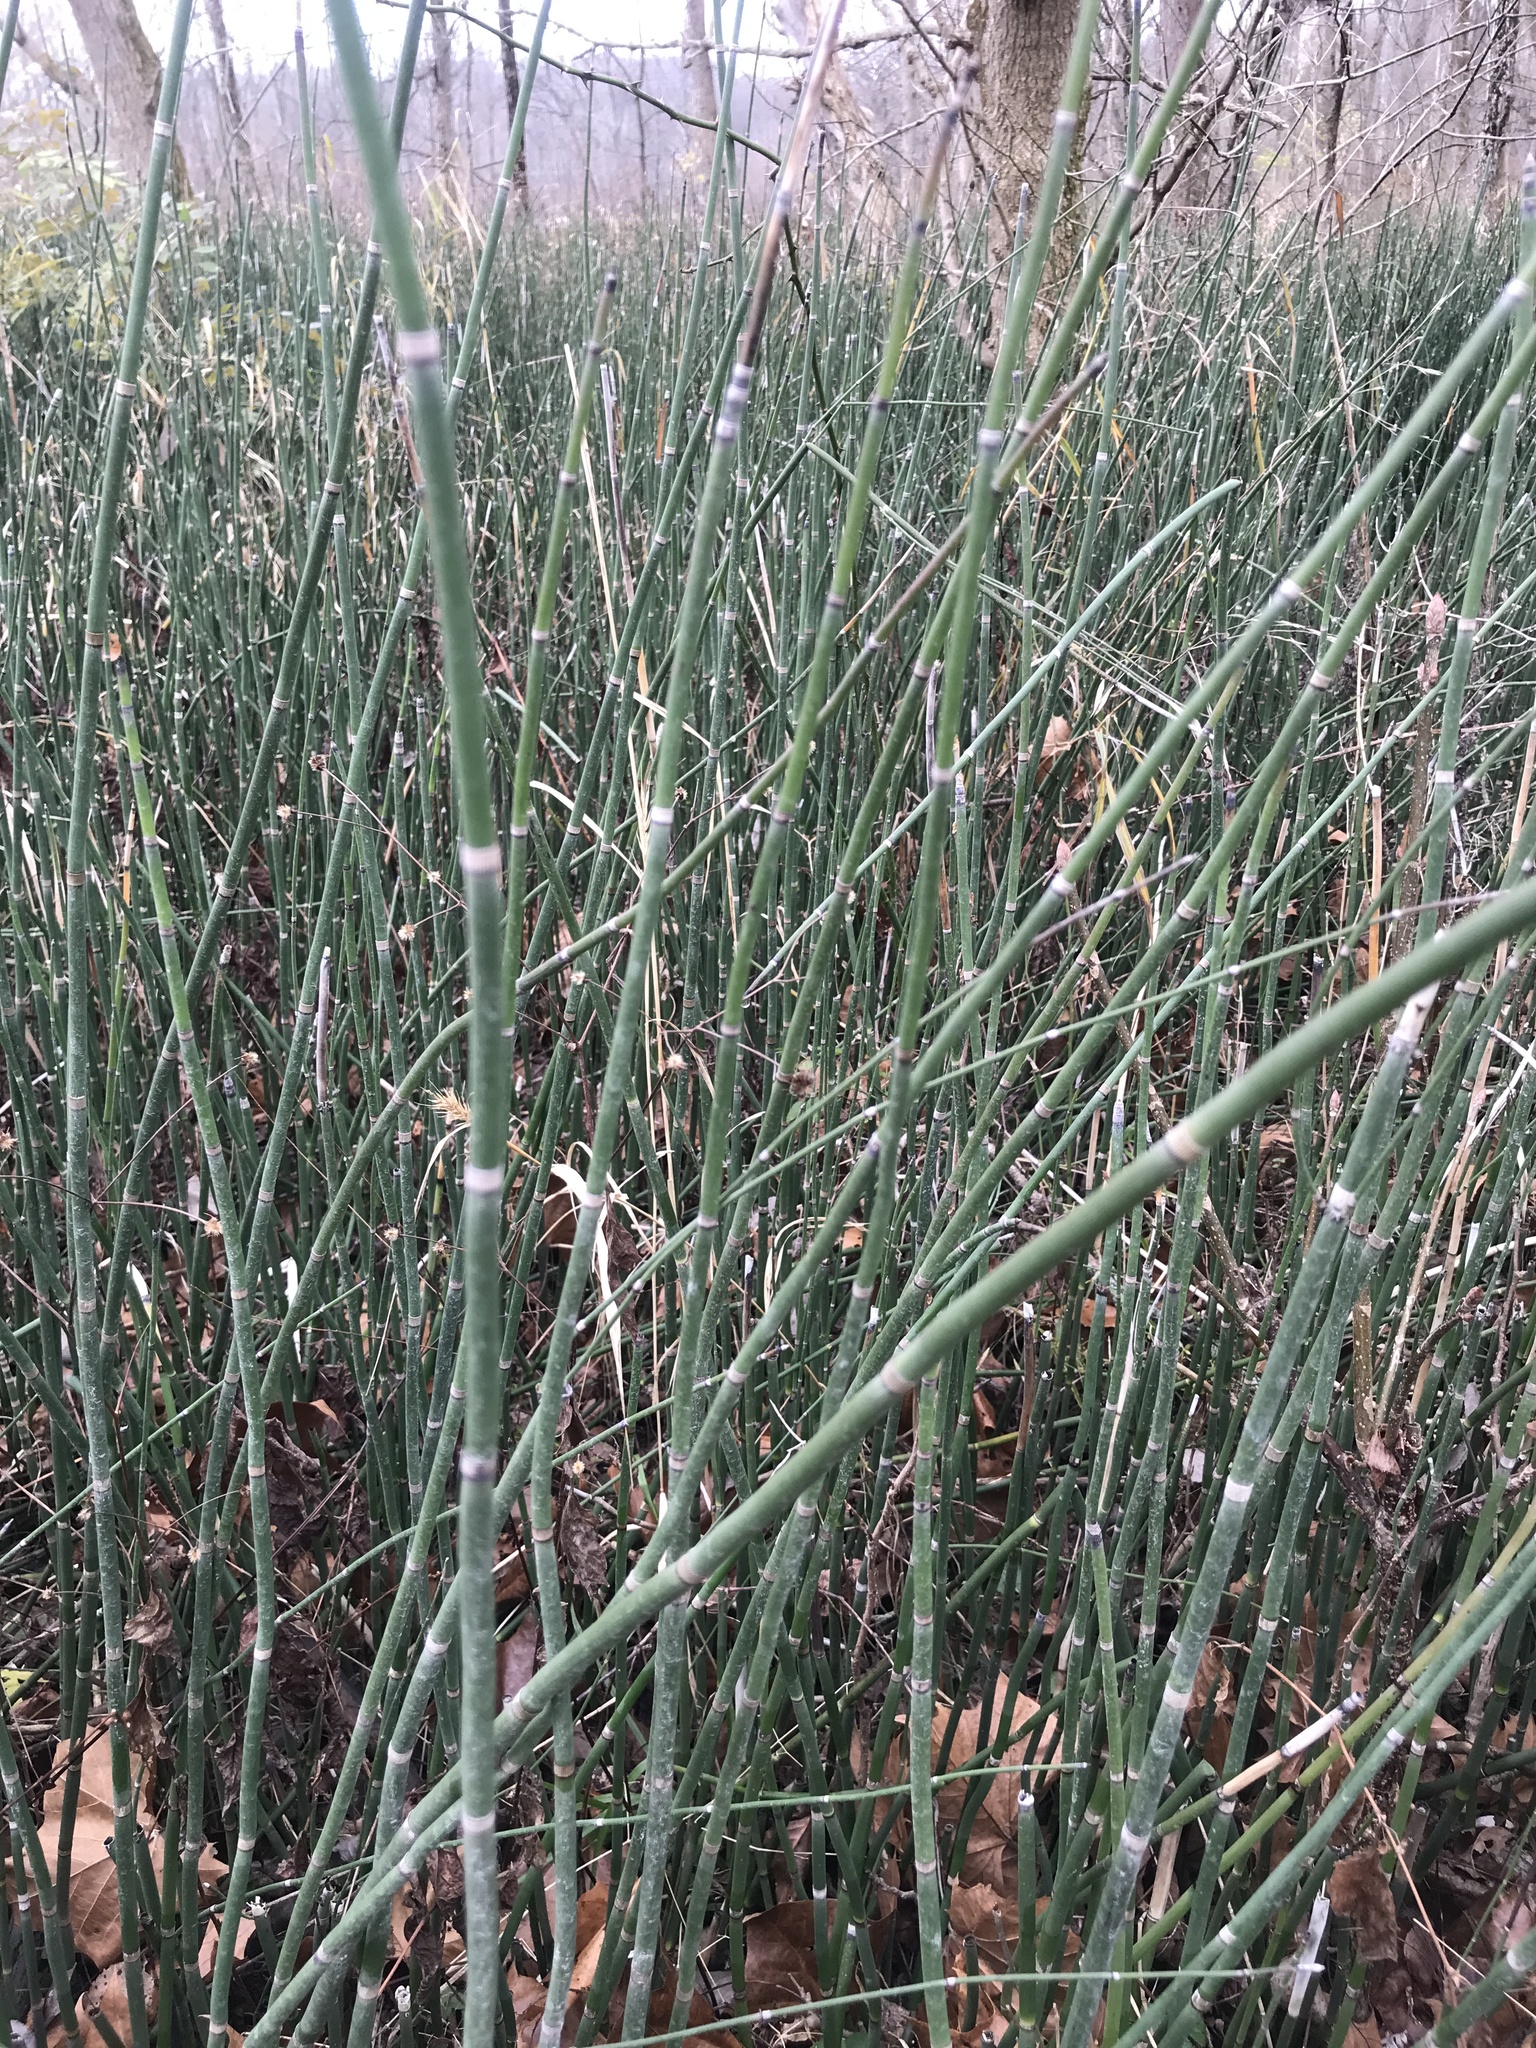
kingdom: Plantae
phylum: Tracheophyta
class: Polypodiopsida
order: Equisetales
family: Equisetaceae
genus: Equisetum
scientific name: Equisetum praealtum
